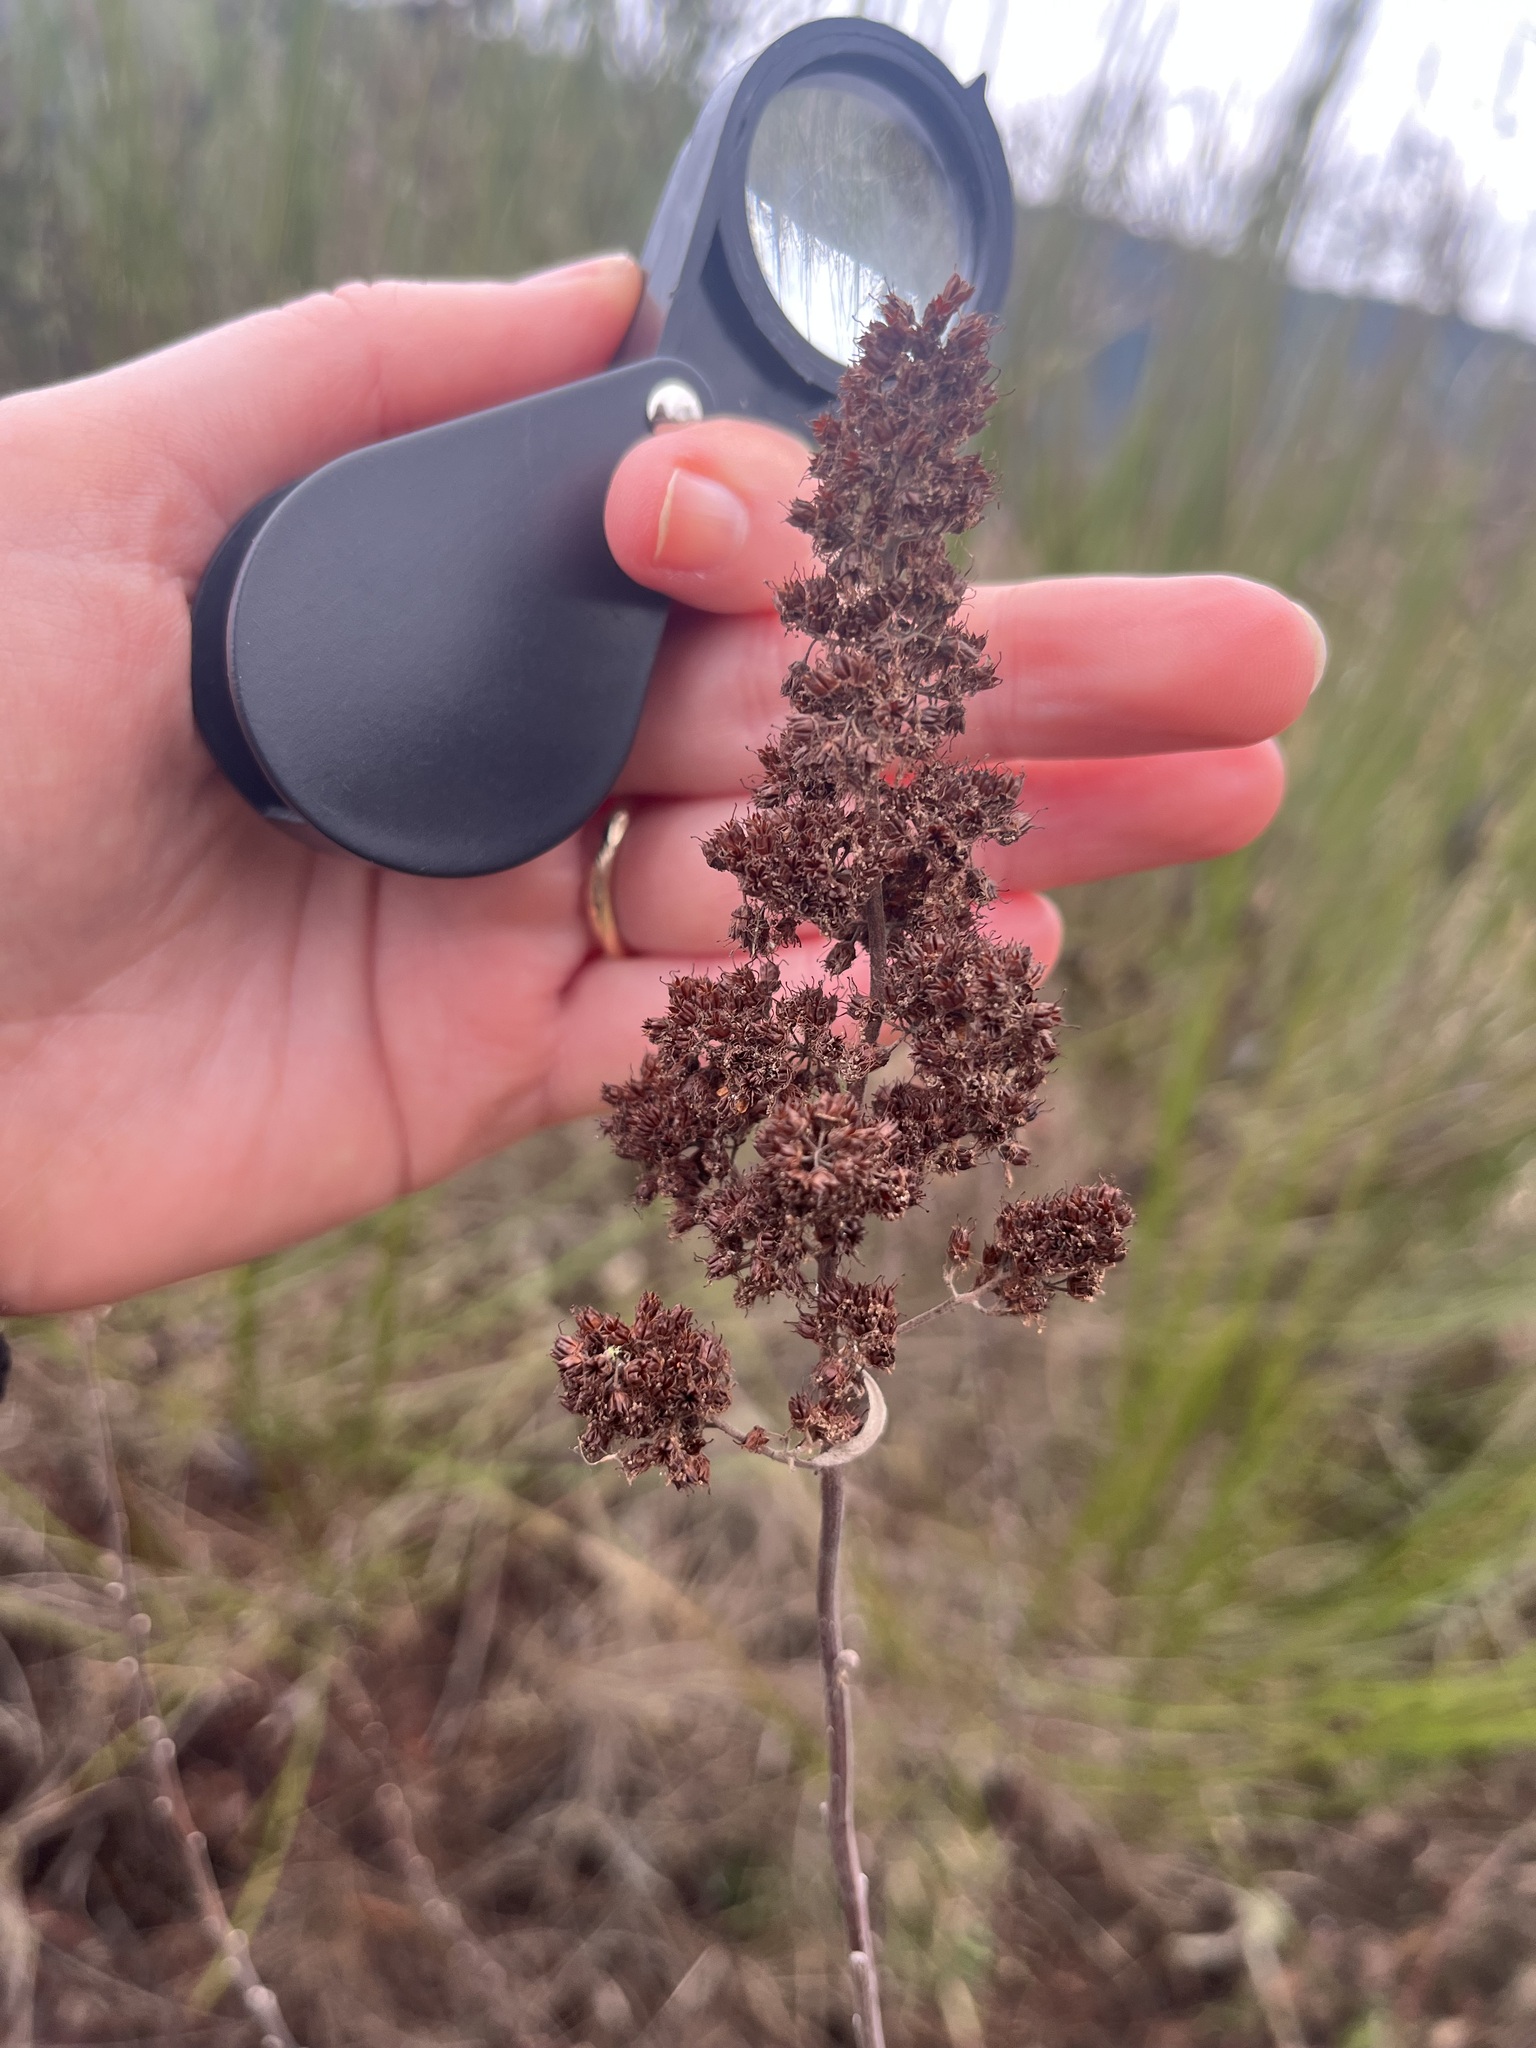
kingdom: Plantae
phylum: Tracheophyta
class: Magnoliopsida
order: Rosales
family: Rosaceae
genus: Spiraea
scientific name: Spiraea douglasii
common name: Steeplebush
